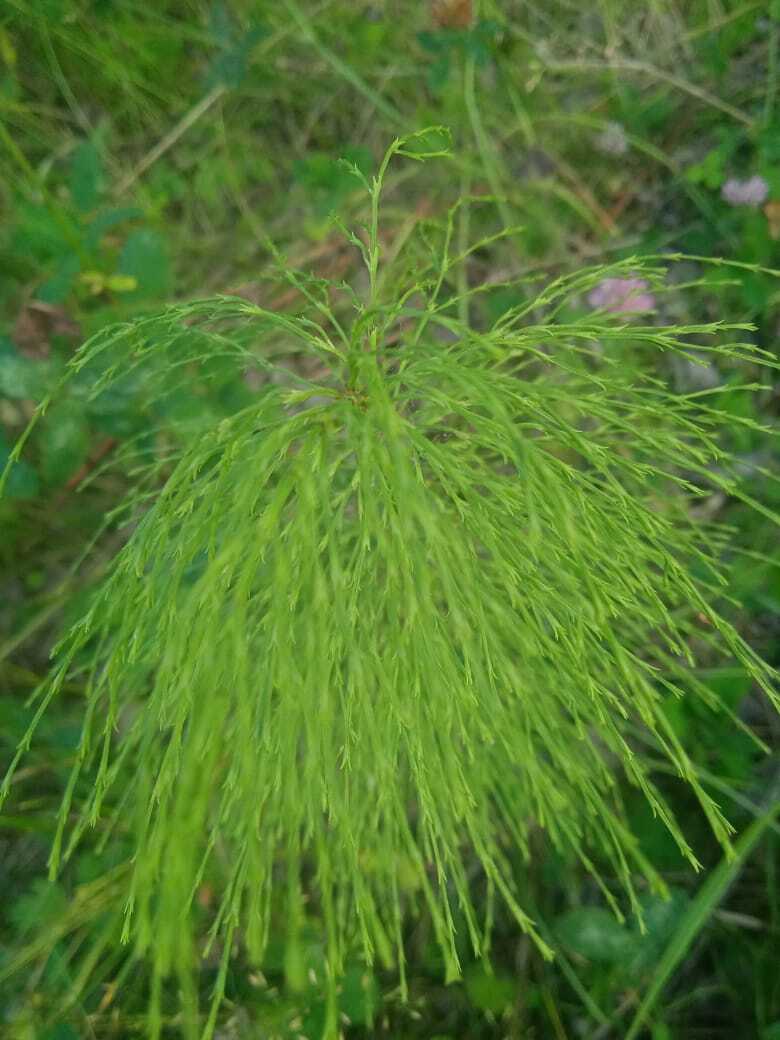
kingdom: Plantae
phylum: Tracheophyta
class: Polypodiopsida
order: Equisetales
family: Equisetaceae
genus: Equisetum
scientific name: Equisetum sylvaticum
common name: Wood horsetail
